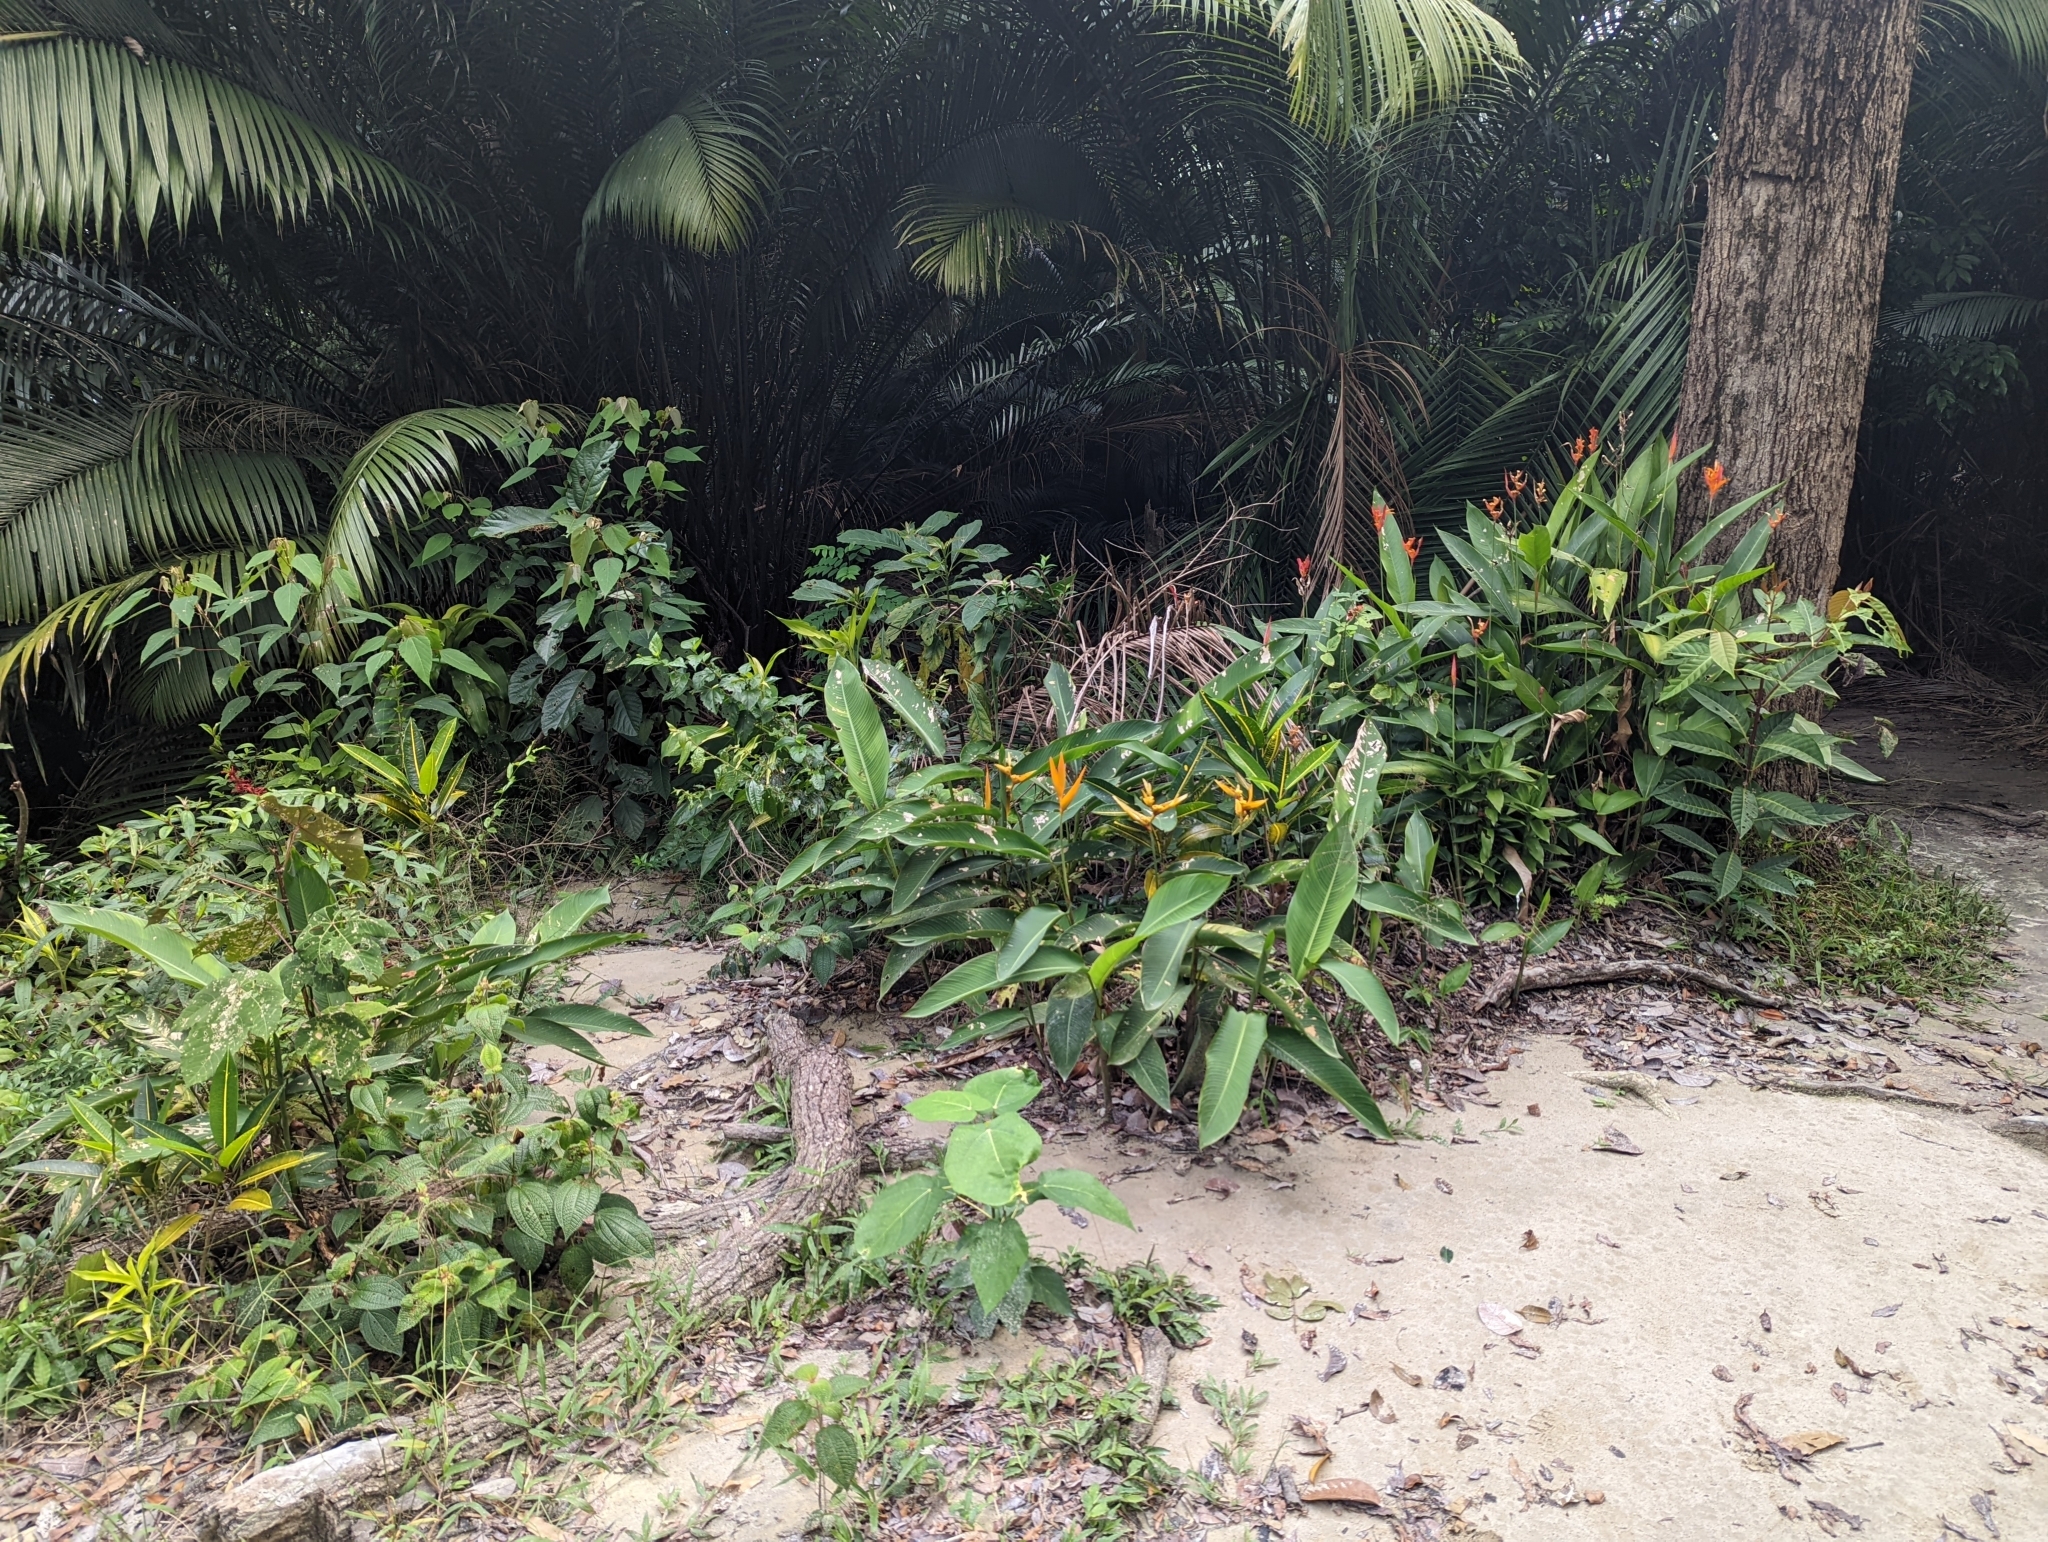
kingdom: Plantae
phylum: Tracheophyta
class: Liliopsida
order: Zingiberales
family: Heliconiaceae
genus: Heliconia
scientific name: Heliconia nickeriensis
